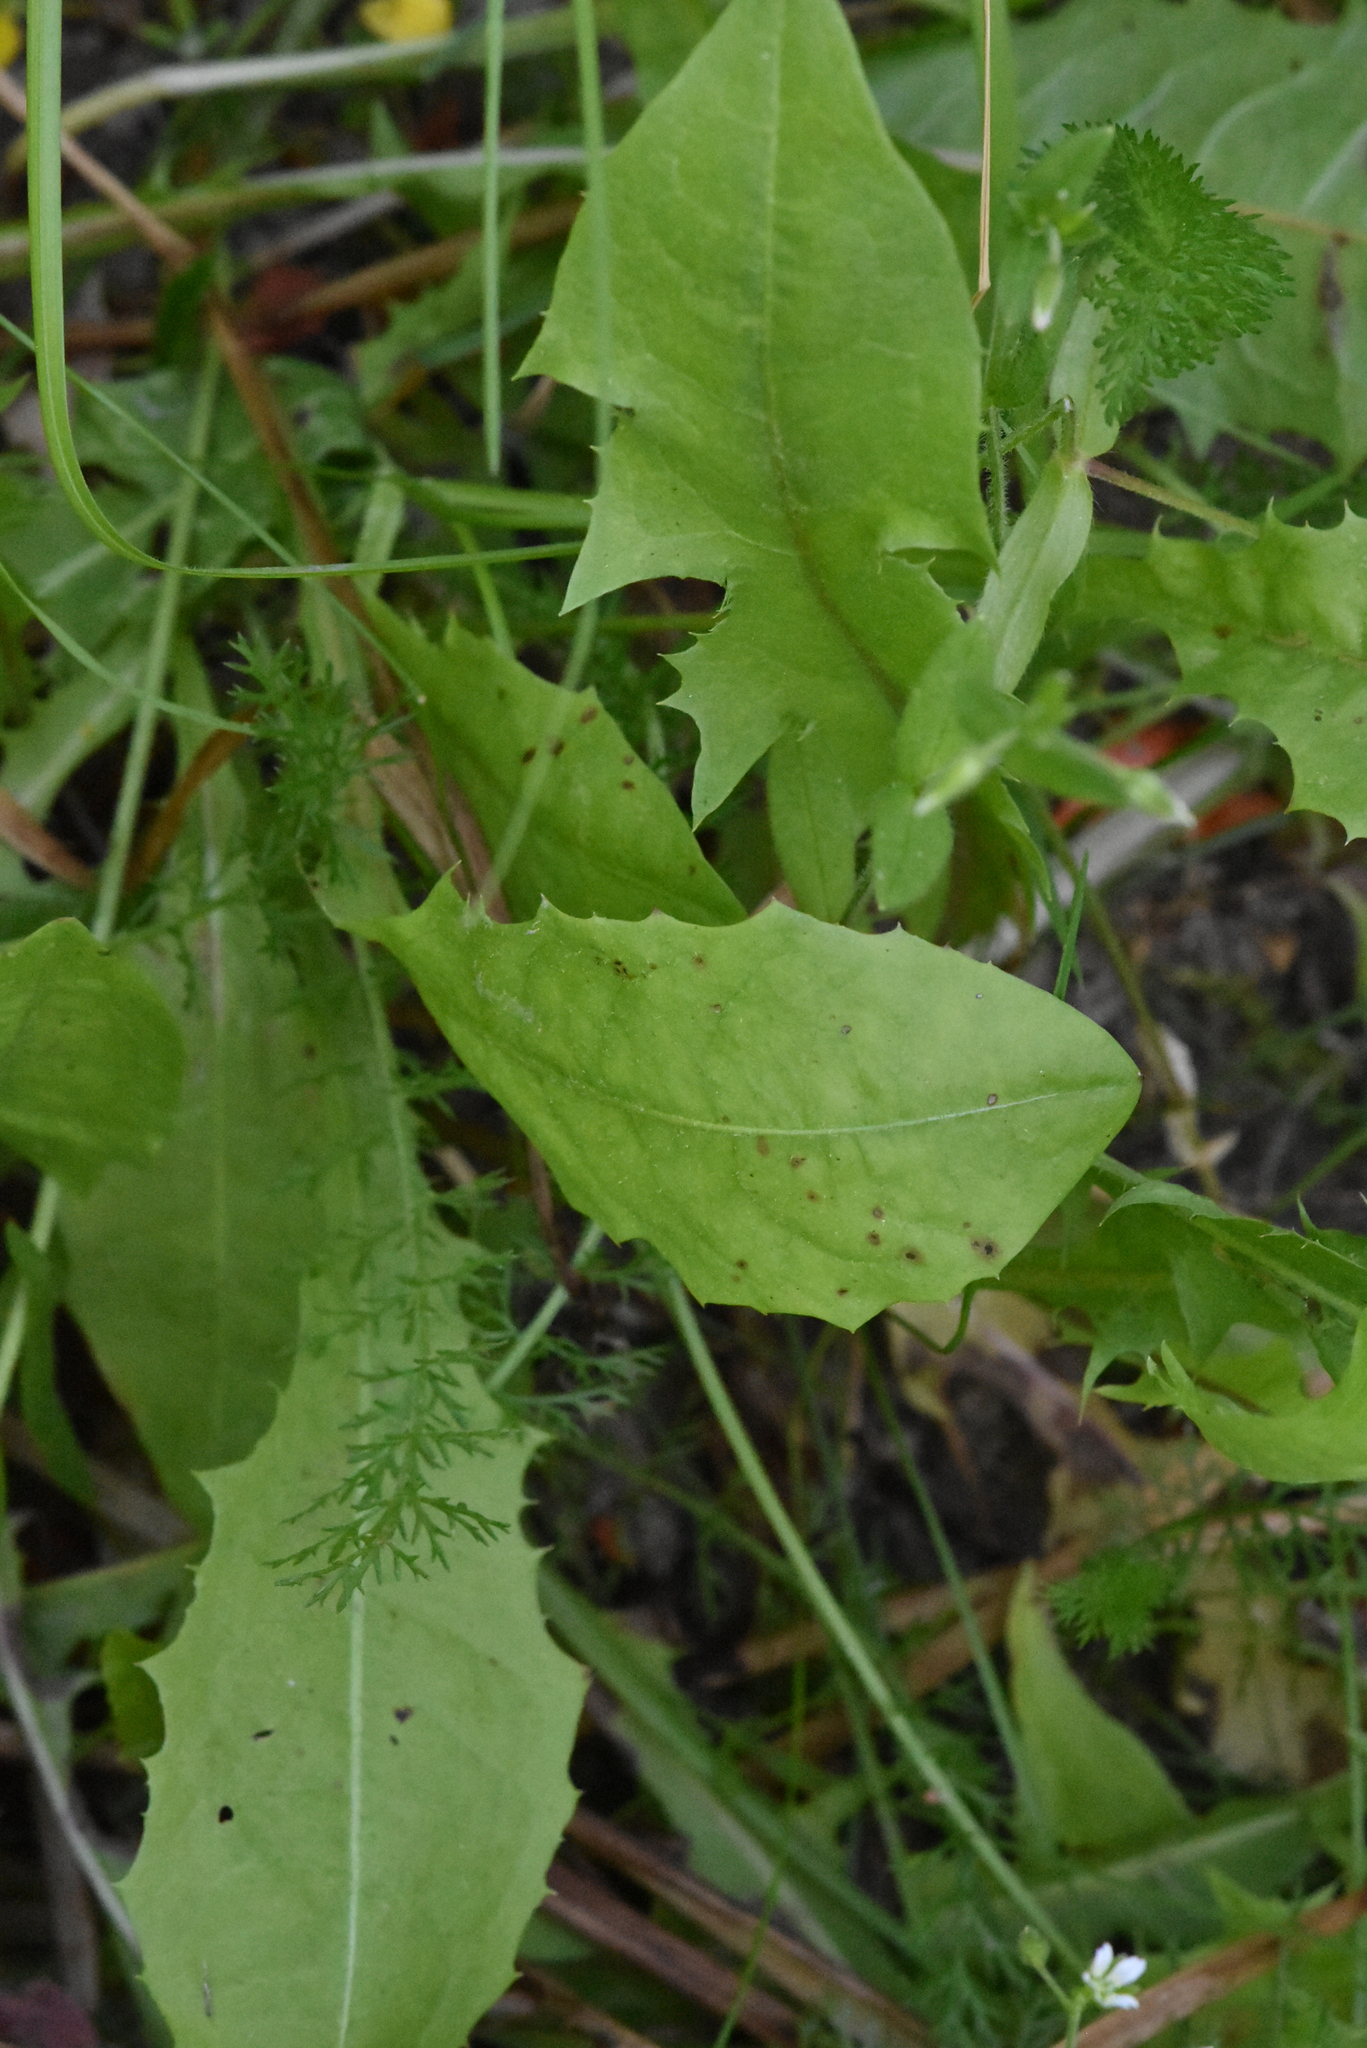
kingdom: Plantae
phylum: Tracheophyta
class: Magnoliopsida
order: Asterales
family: Asteraceae
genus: Taraxacum
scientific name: Taraxacum officinale
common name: Common dandelion
